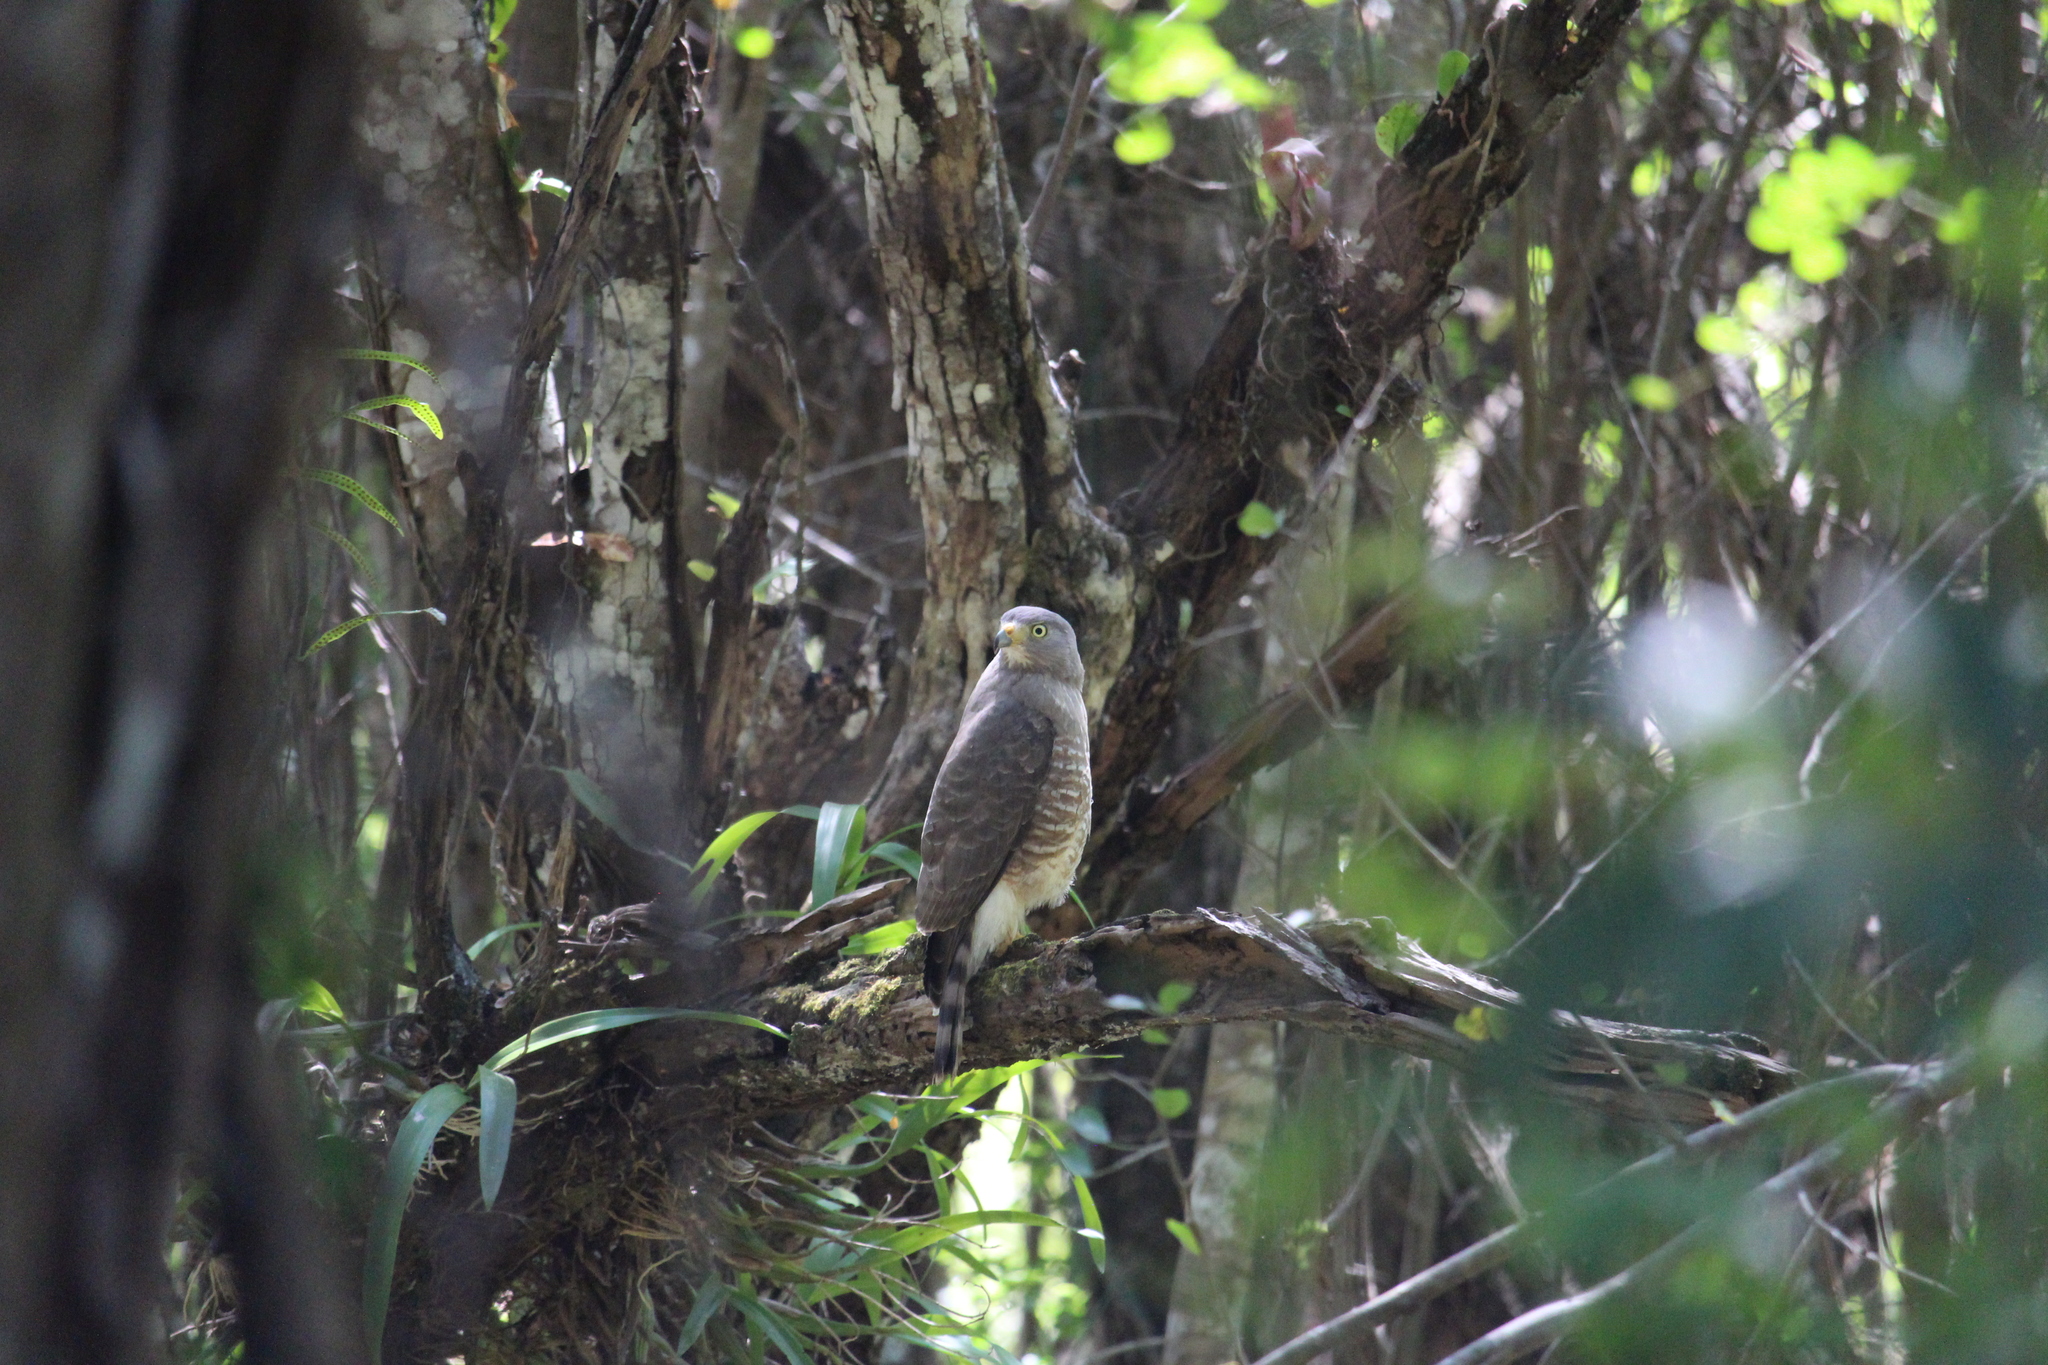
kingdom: Animalia
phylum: Chordata
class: Aves
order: Accipitriformes
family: Accipitridae
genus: Rupornis
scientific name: Rupornis magnirostris
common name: Roadside hawk
